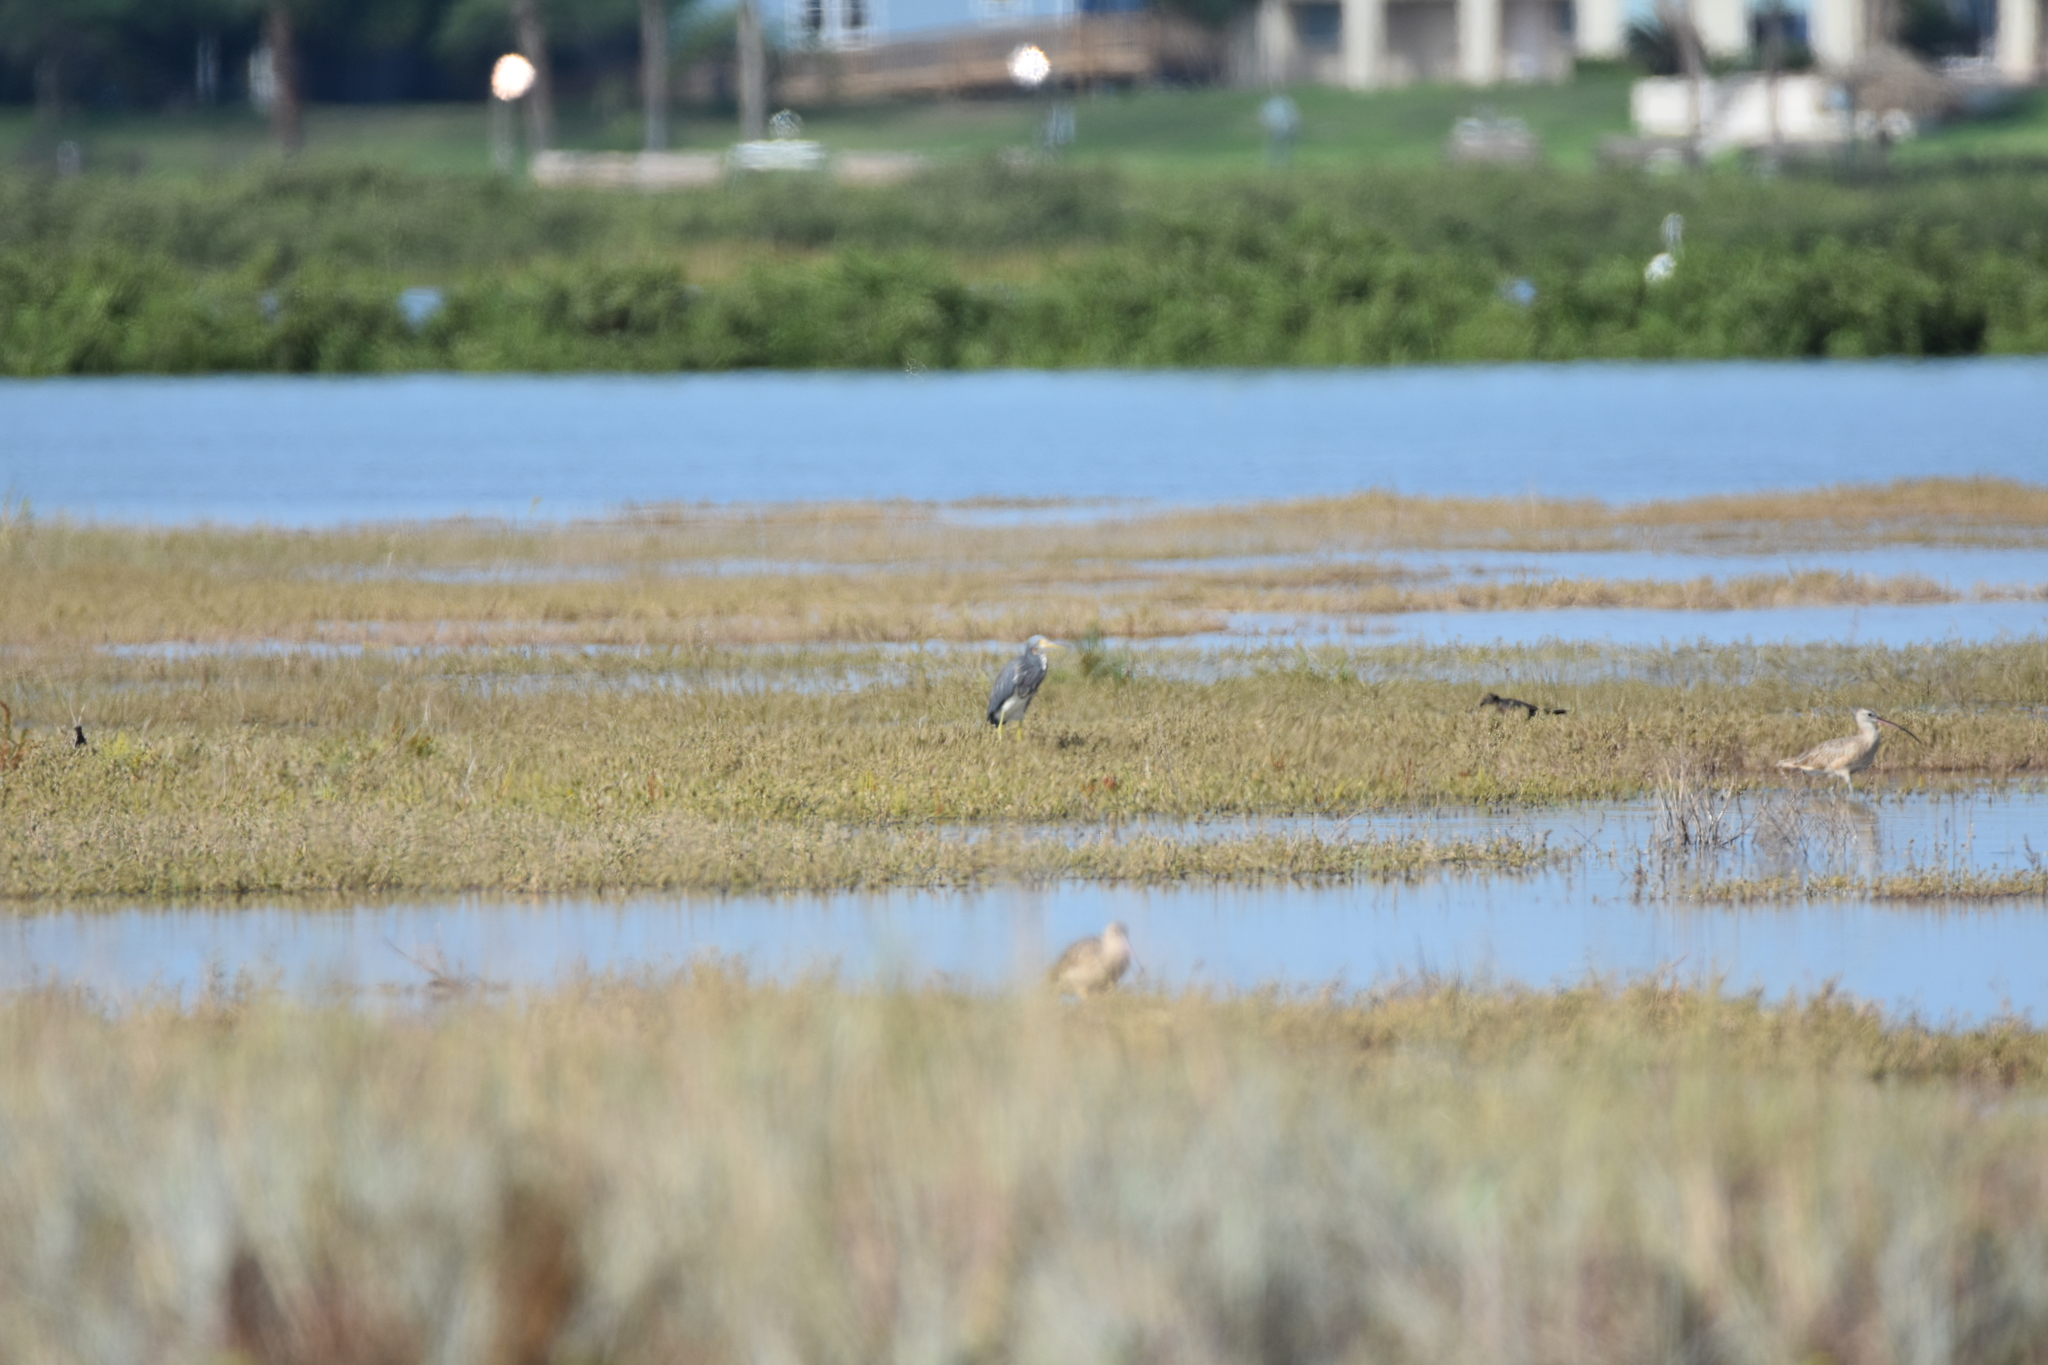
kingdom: Animalia
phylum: Chordata
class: Aves
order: Pelecaniformes
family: Ardeidae
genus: Egretta
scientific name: Egretta tricolor
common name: Tricolored heron
